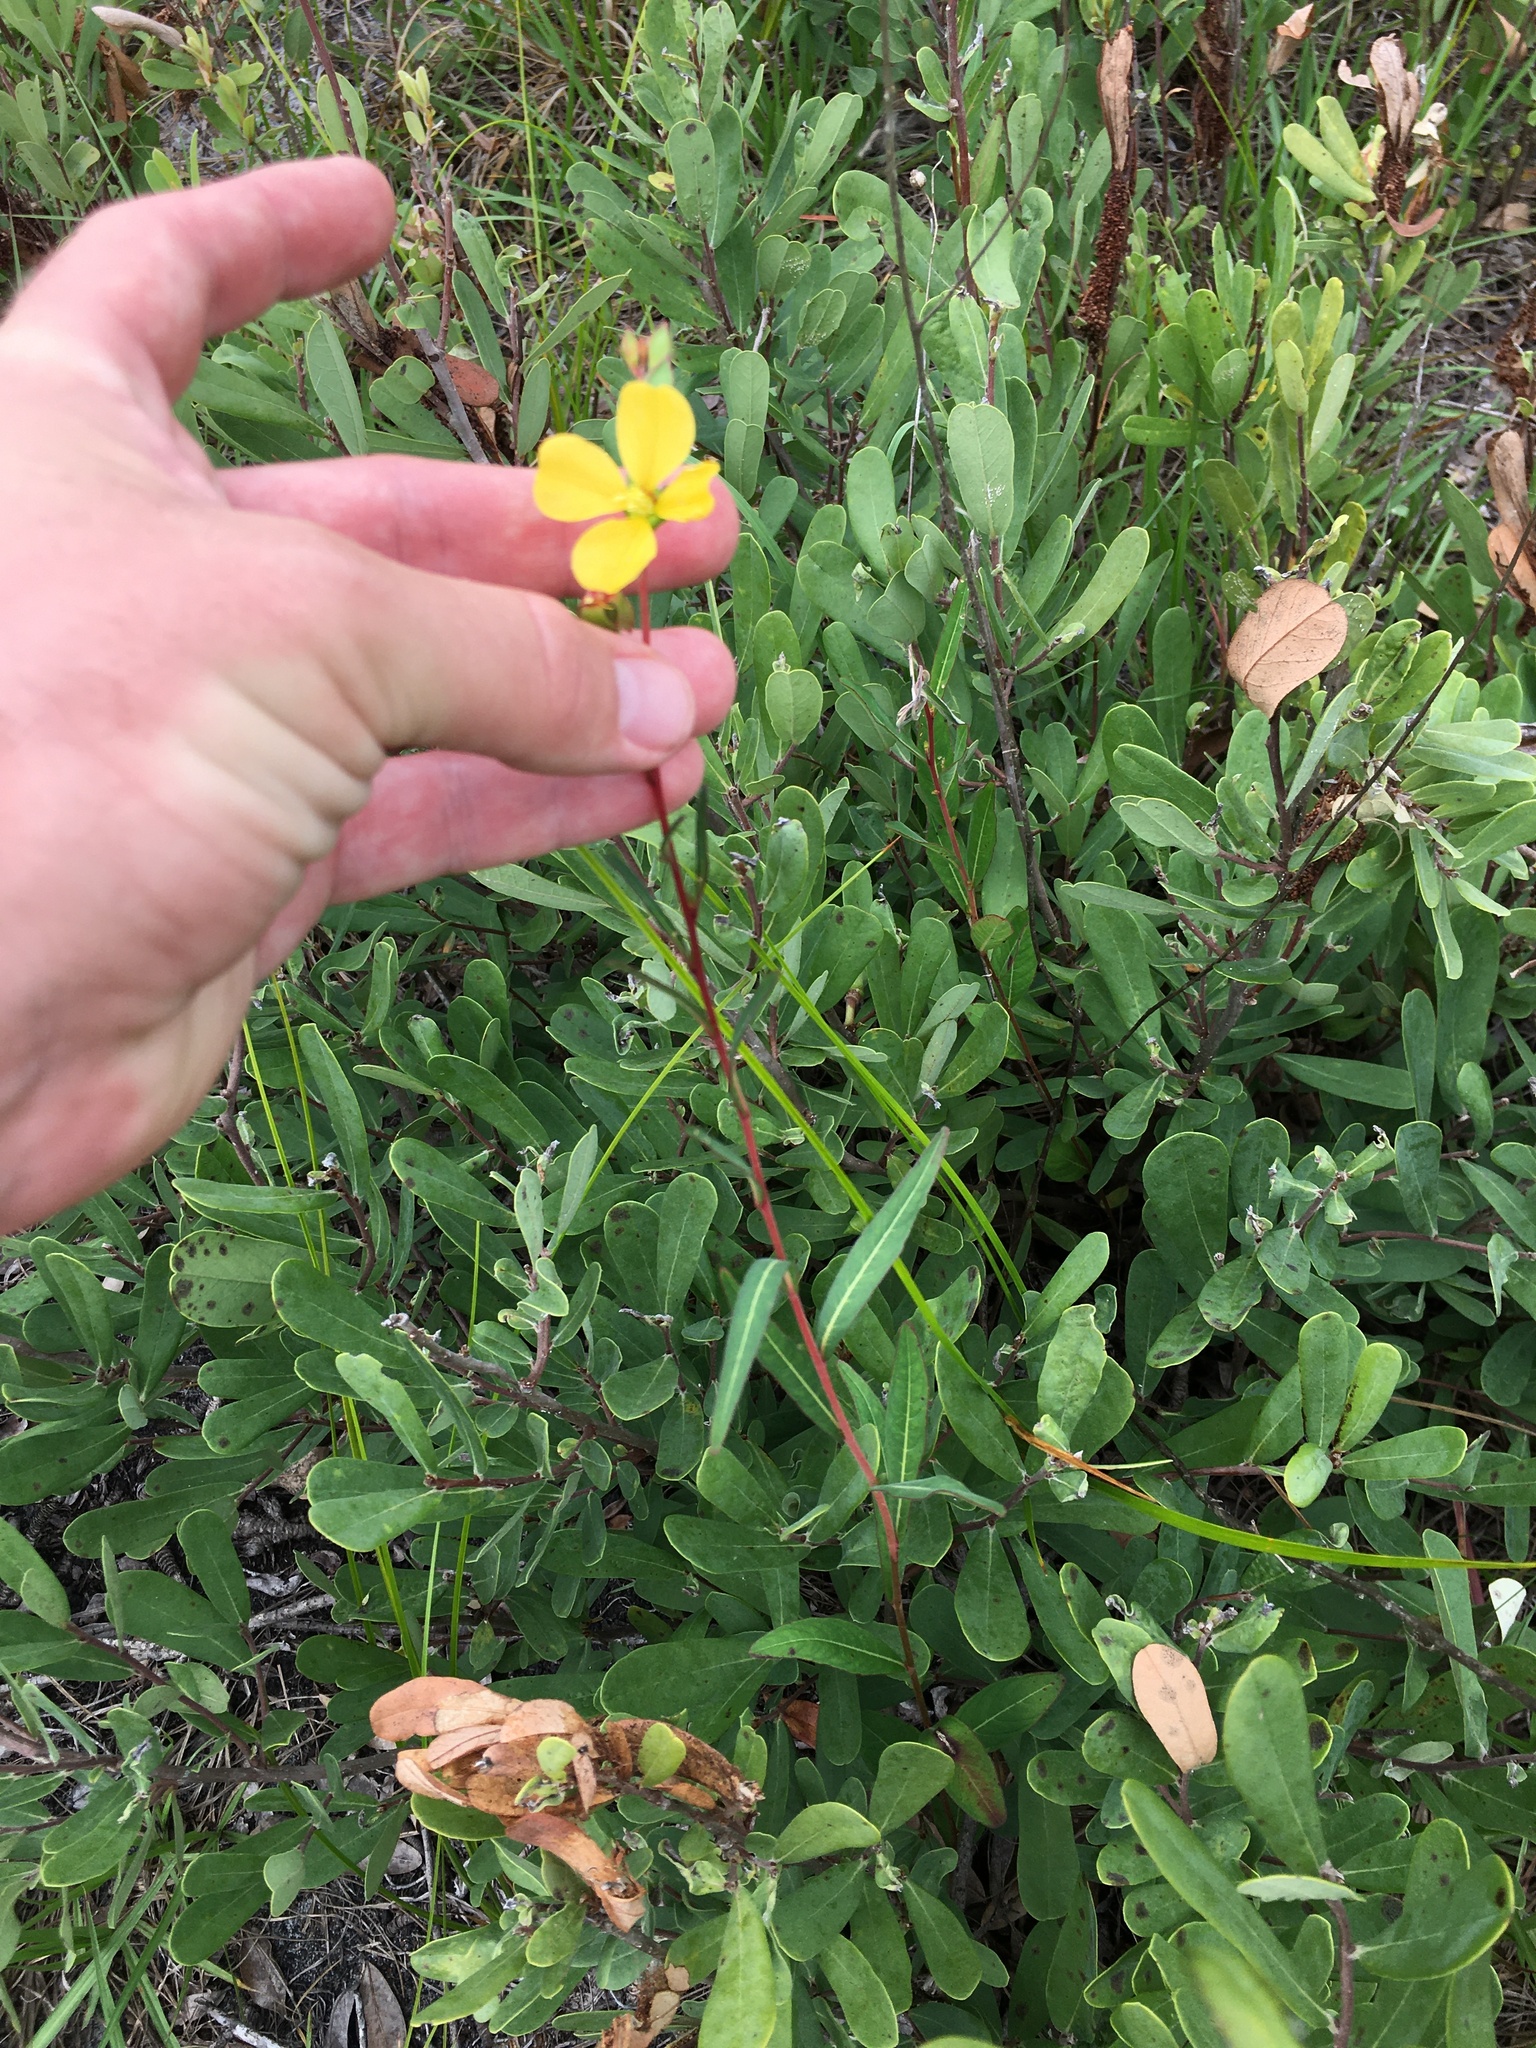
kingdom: Plantae
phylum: Tracheophyta
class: Magnoliopsida
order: Myrtales
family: Onagraceae
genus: Ludwigia
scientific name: Ludwigia maritima
